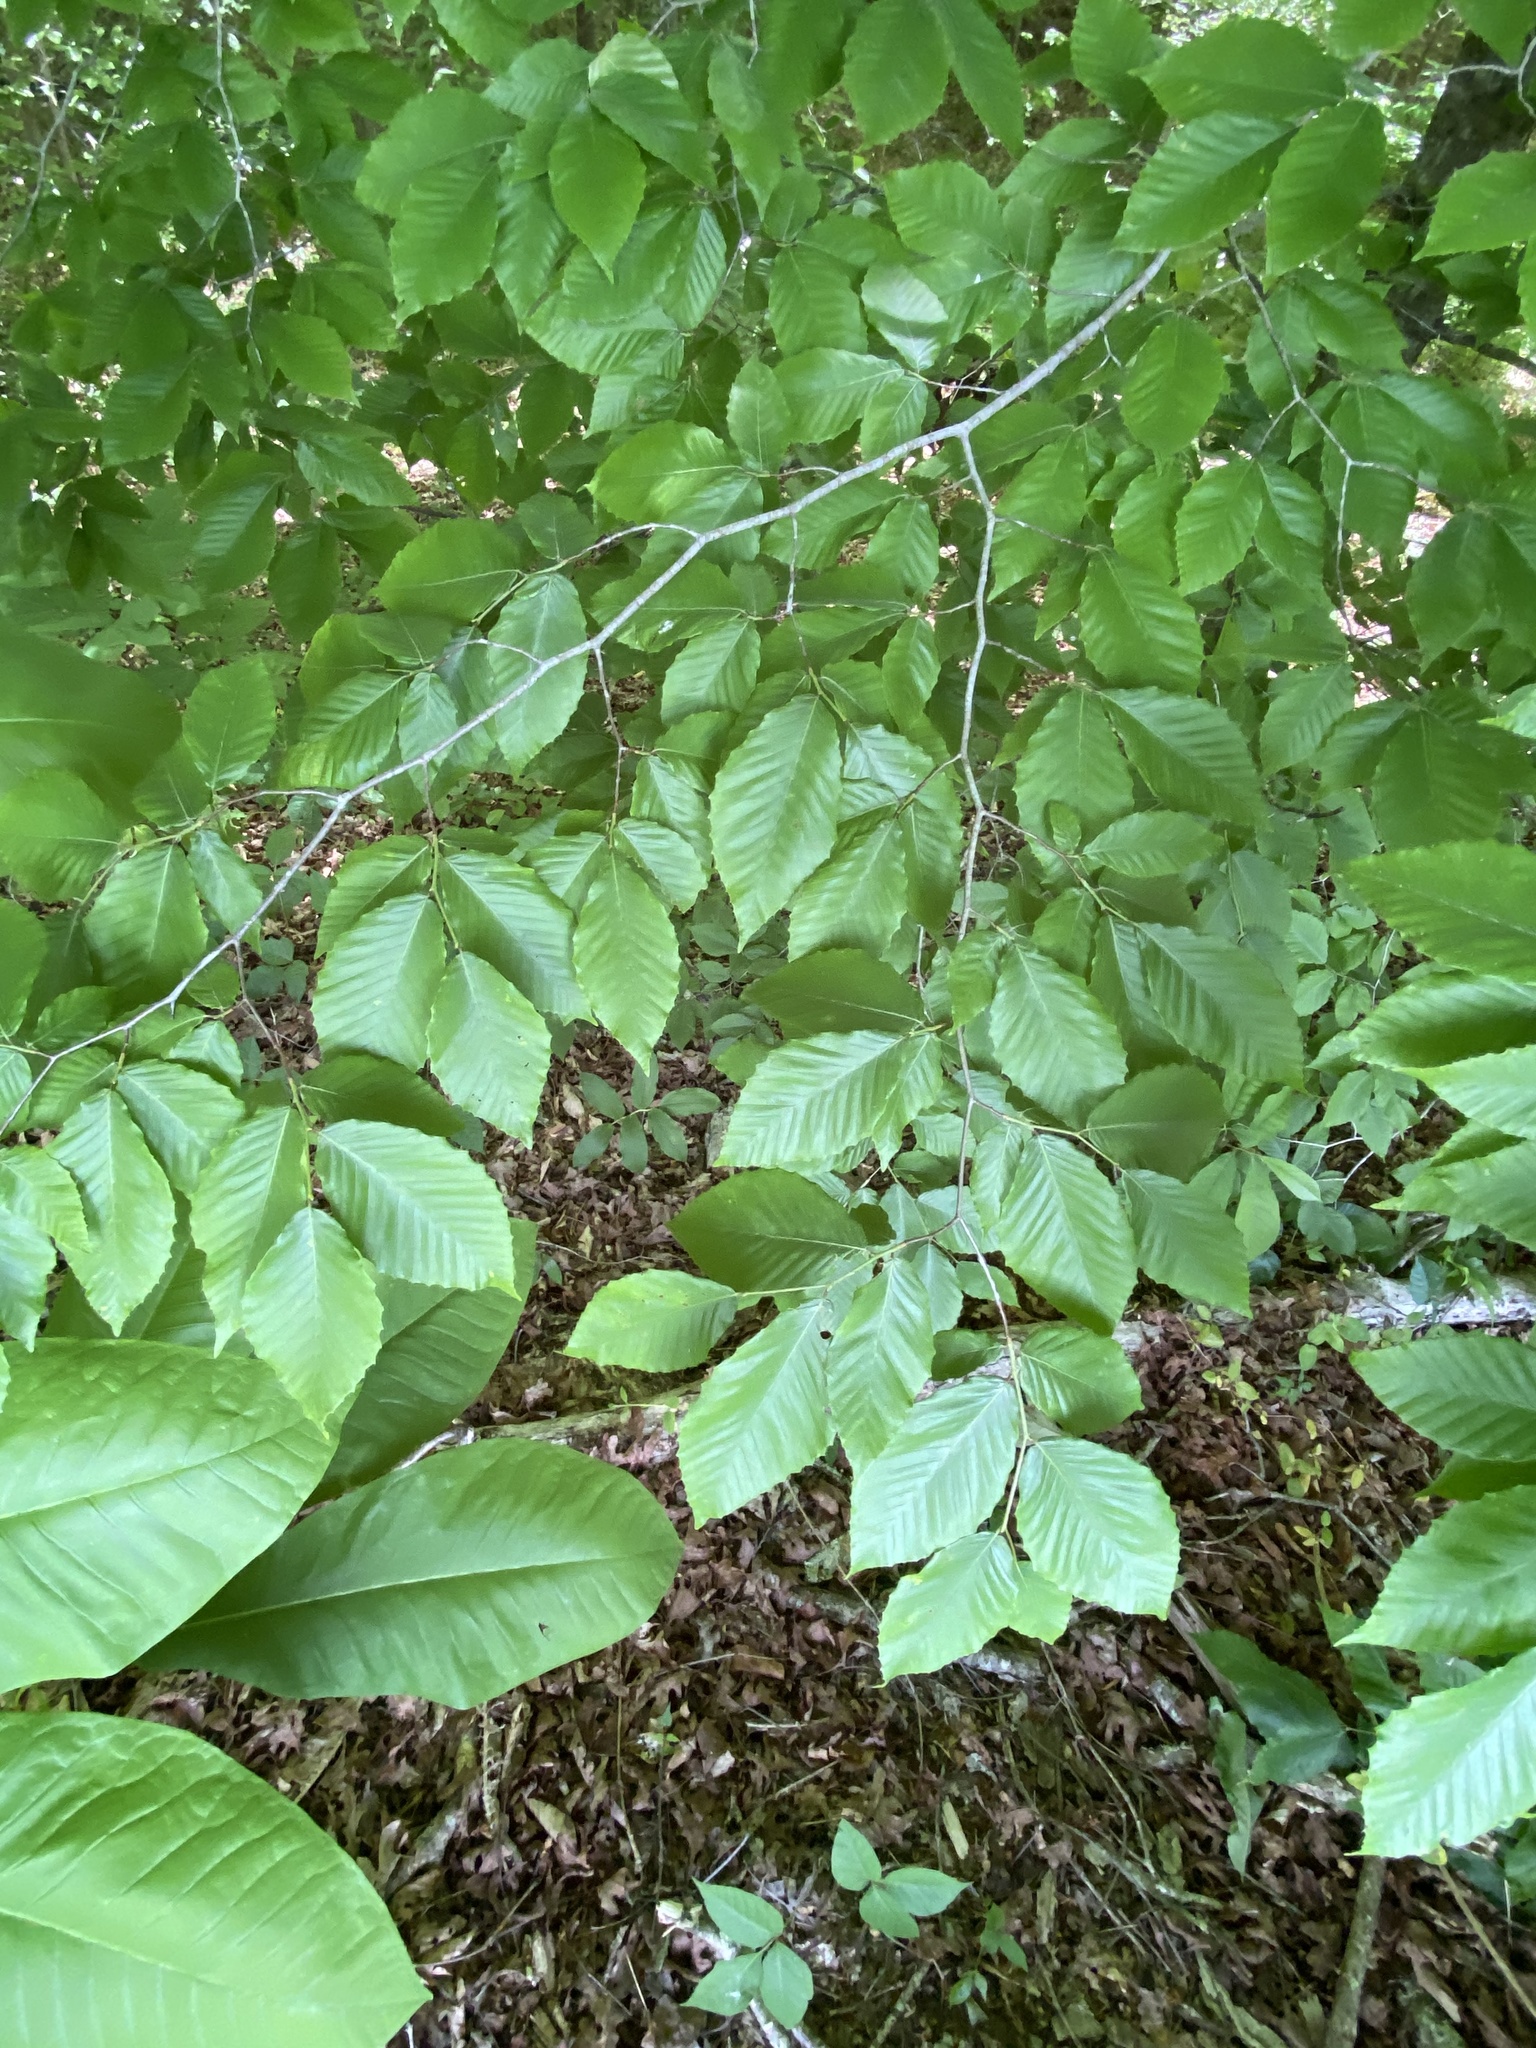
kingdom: Plantae
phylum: Tracheophyta
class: Magnoliopsida
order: Fagales
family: Fagaceae
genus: Fagus
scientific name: Fagus grandifolia
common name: American beech
